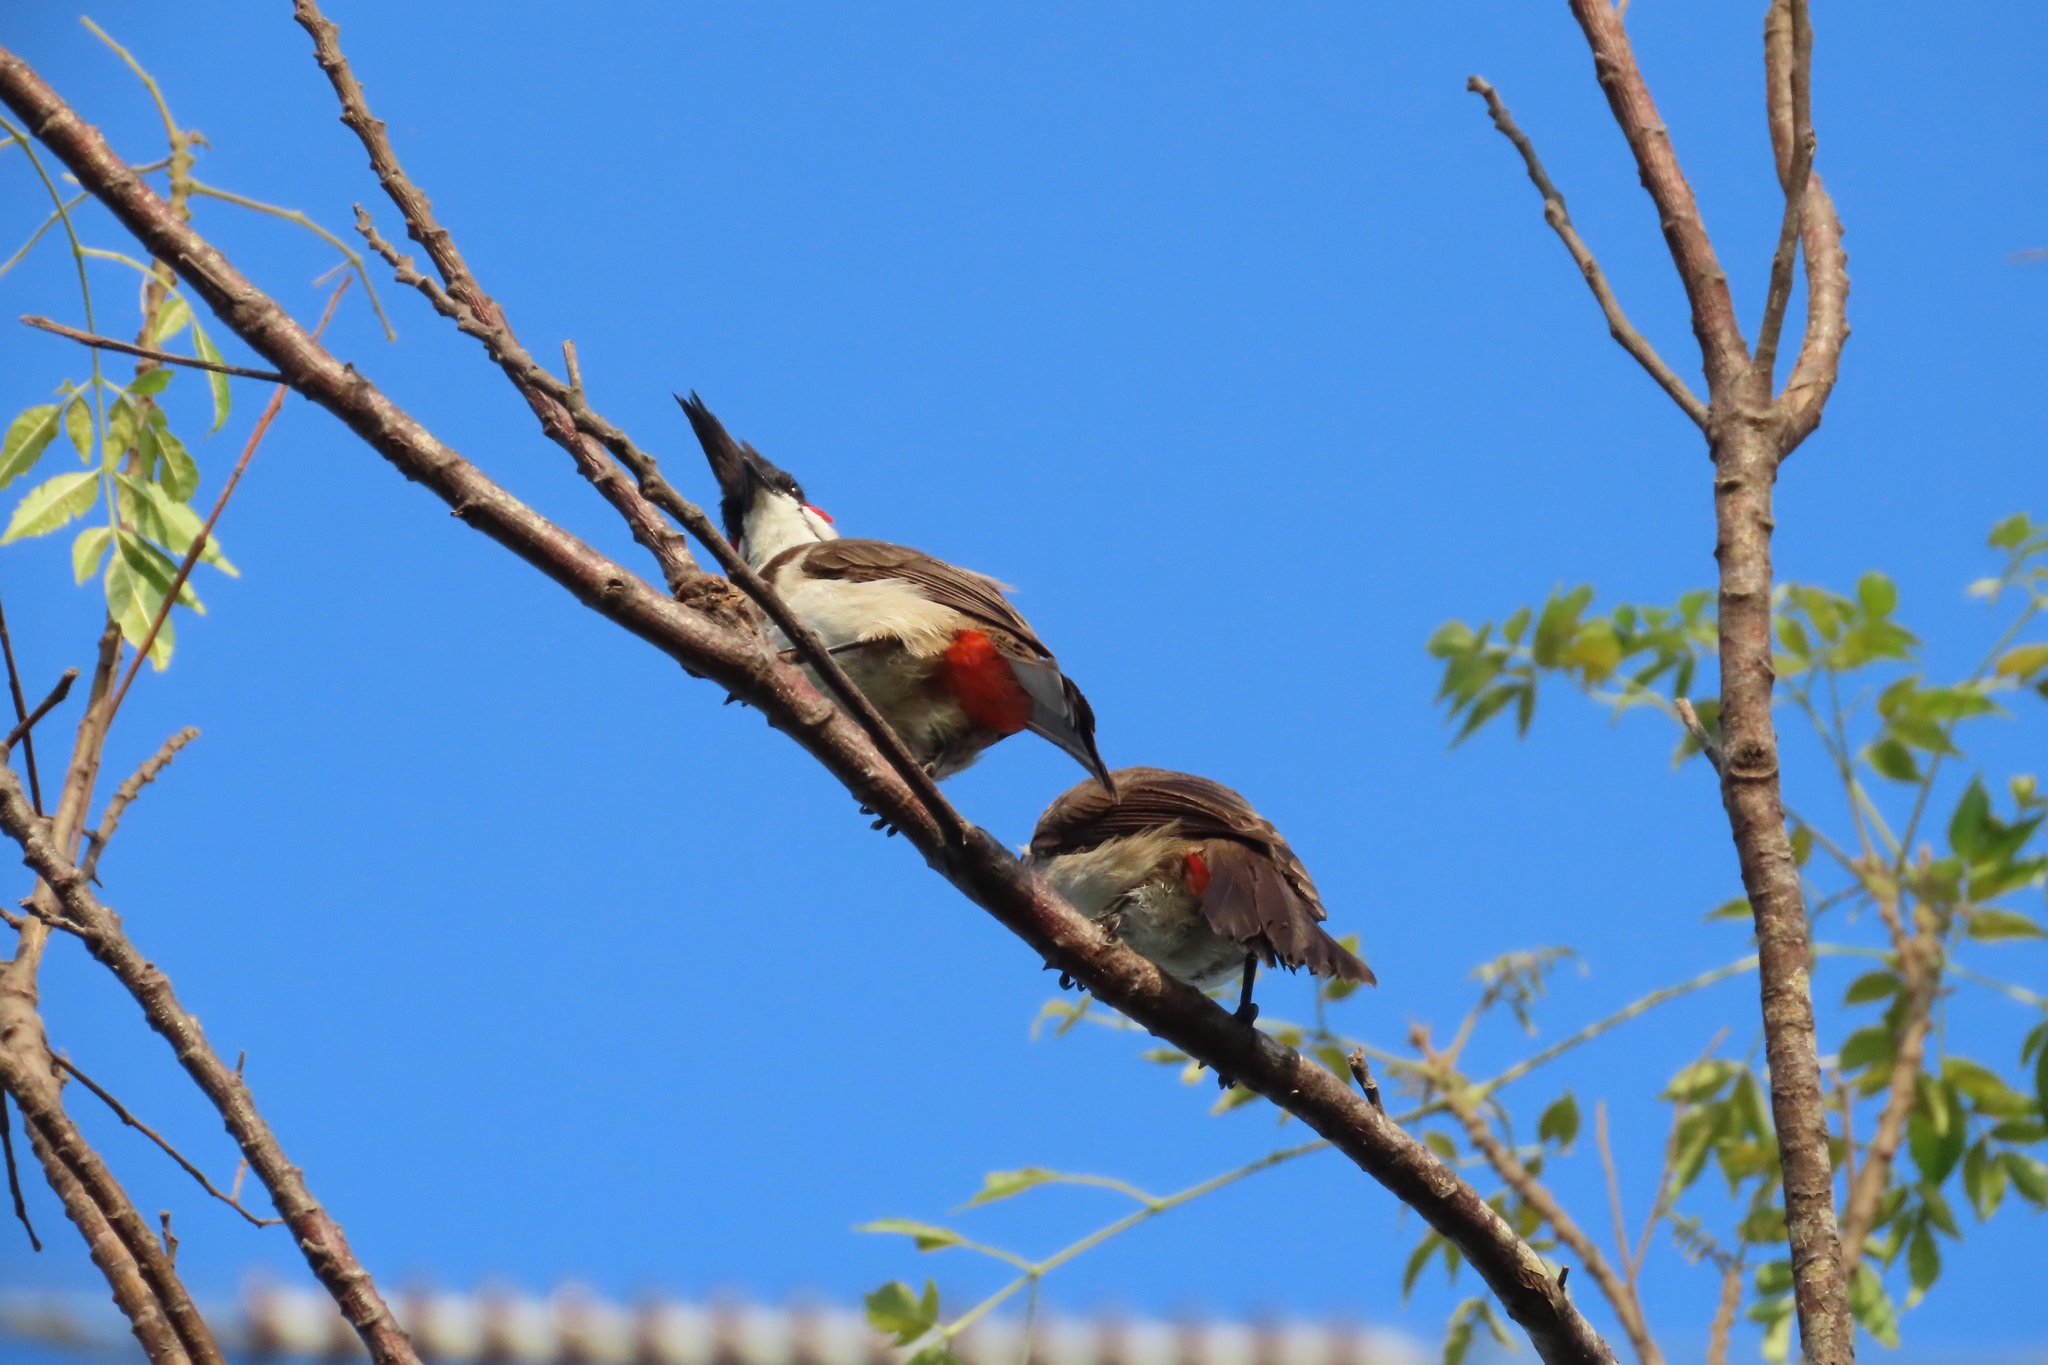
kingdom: Animalia
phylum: Chordata
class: Aves
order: Passeriformes
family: Pycnonotidae
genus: Pycnonotus
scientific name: Pycnonotus jocosus
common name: Red-whiskered bulbul
